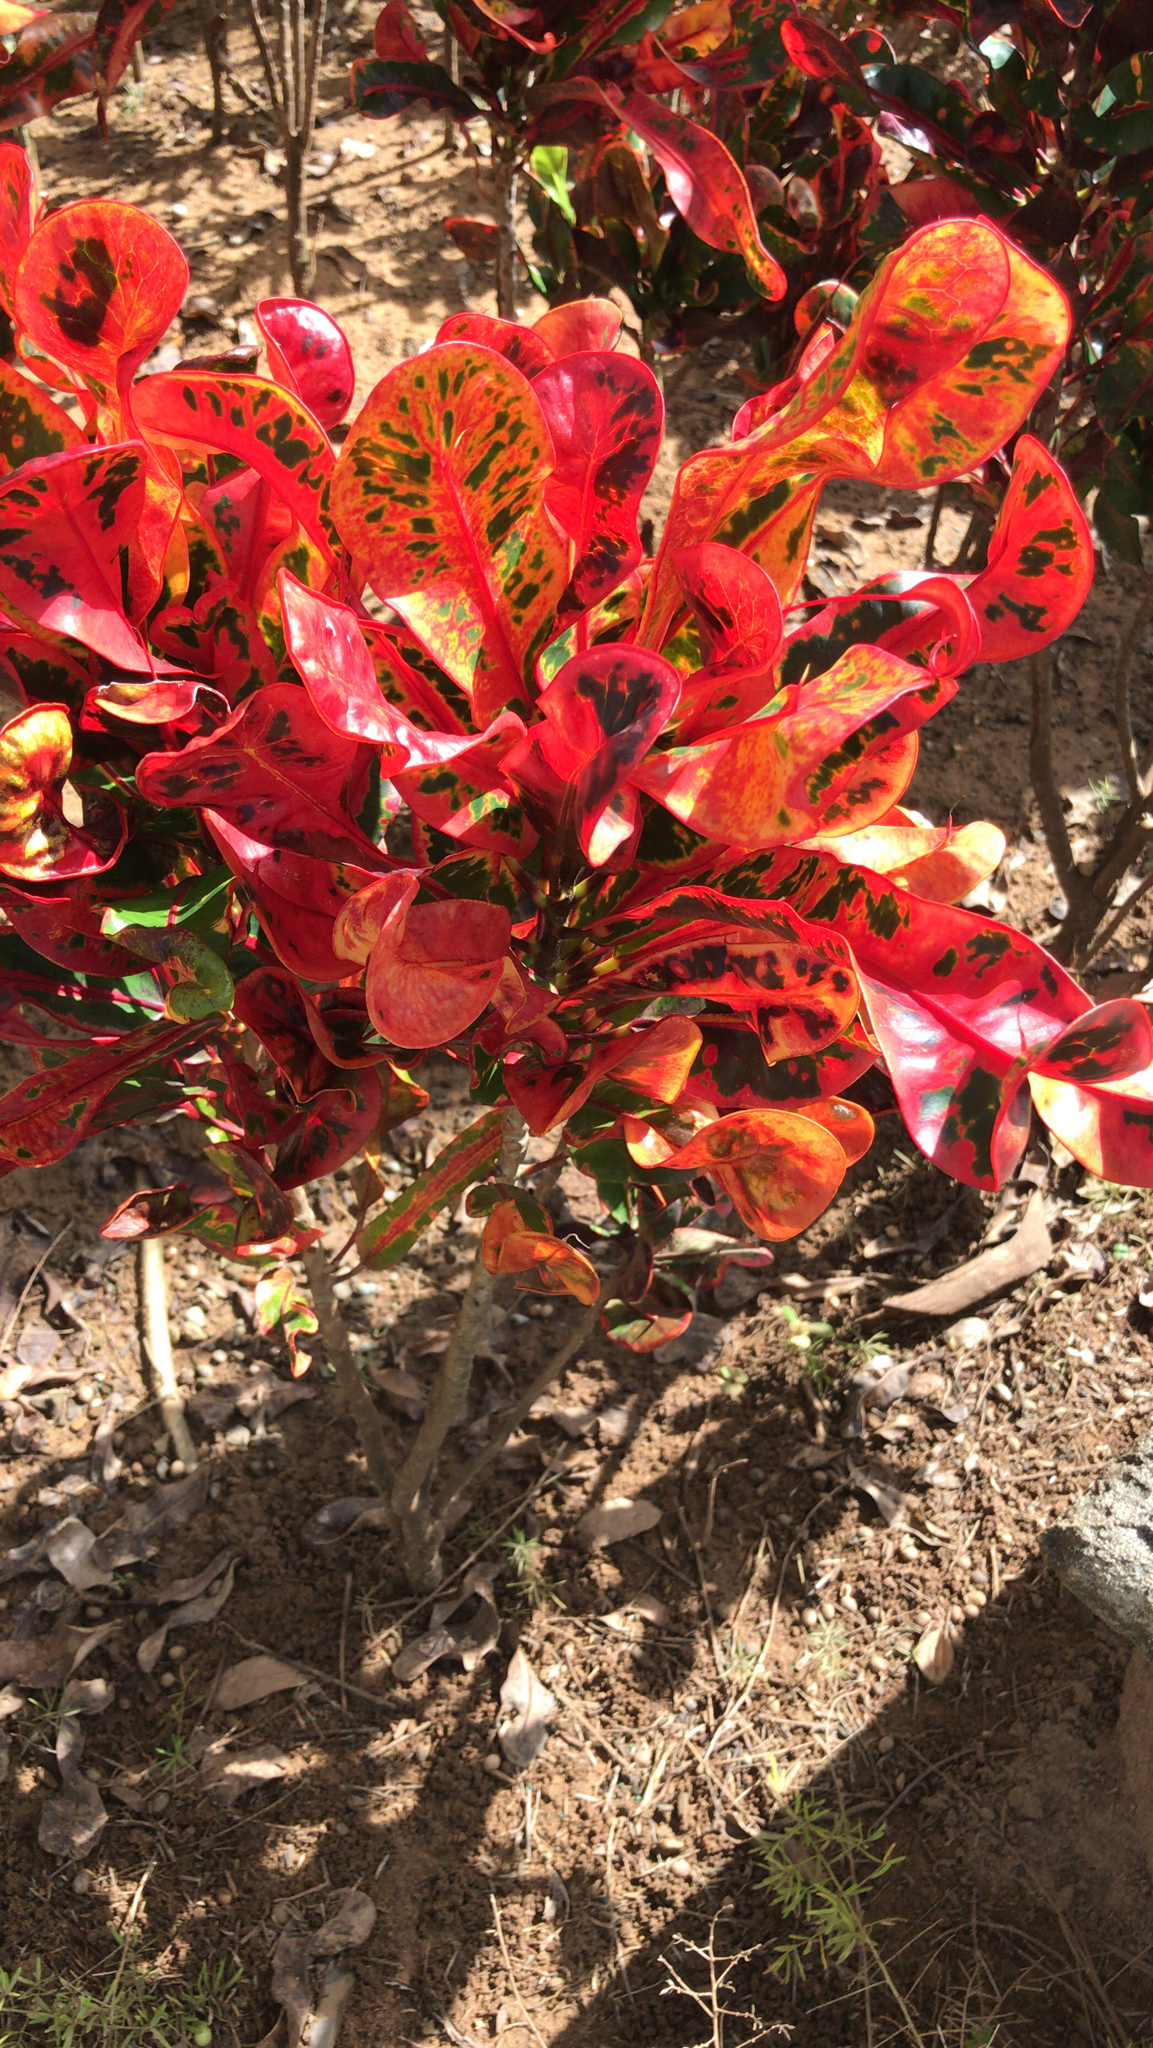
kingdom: Plantae
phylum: Tracheophyta
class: Magnoliopsida
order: Malpighiales
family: Euphorbiaceae
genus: Codiaeum
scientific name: Codiaeum variegatum
